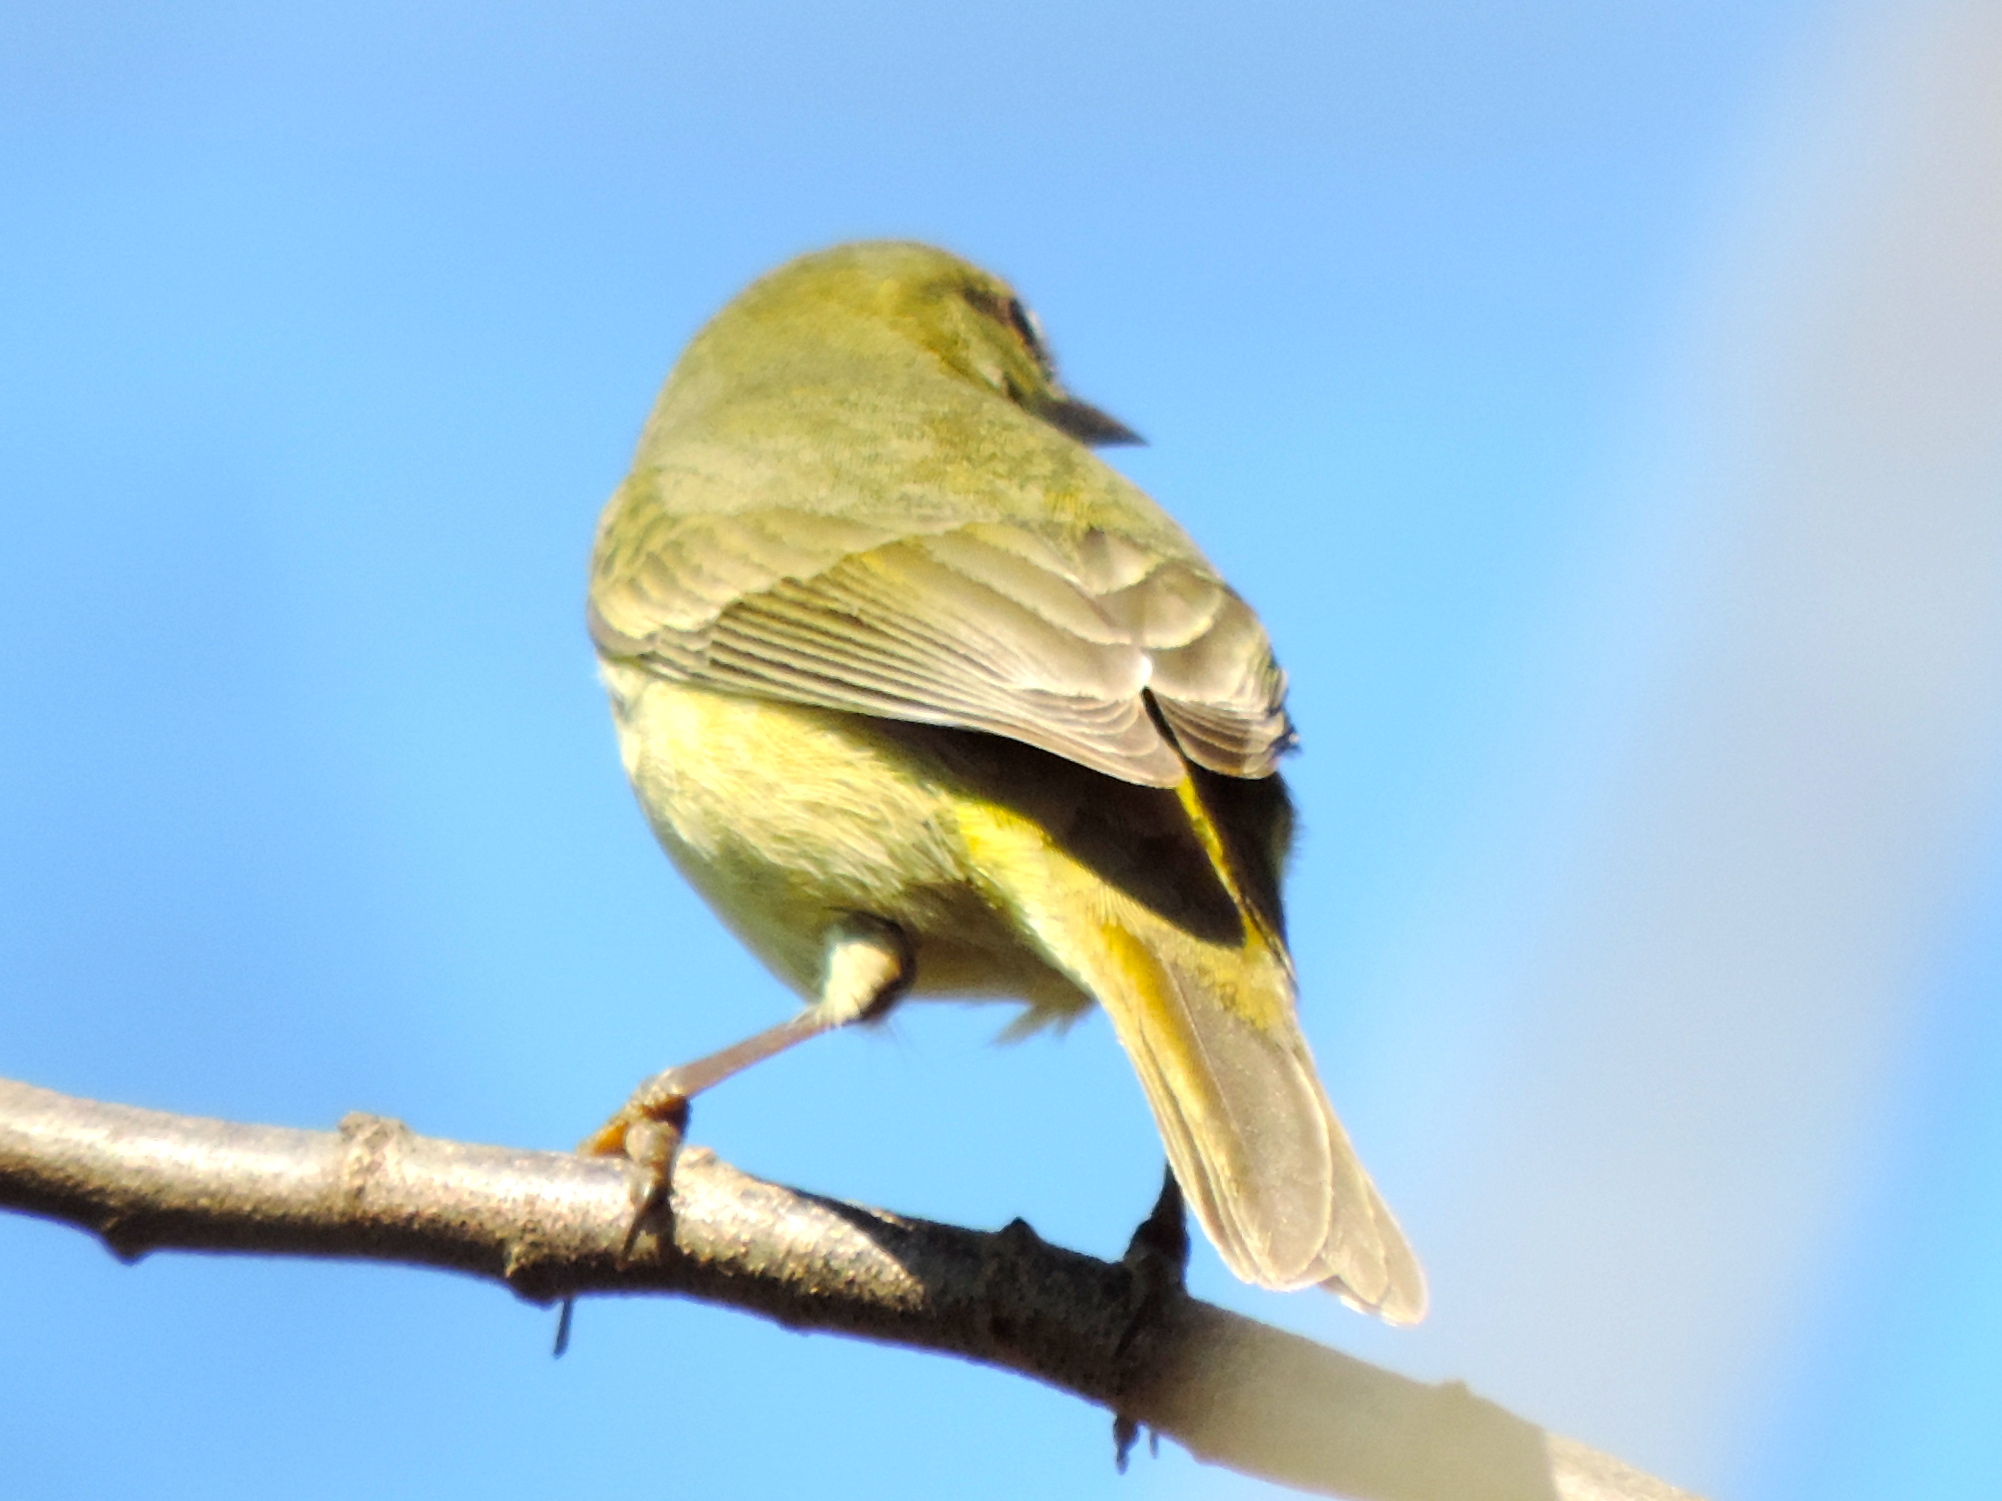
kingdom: Animalia
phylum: Chordata
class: Aves
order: Passeriformes
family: Parulidae
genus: Leiothlypis
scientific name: Leiothlypis celata
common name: Orange-crowned warbler
